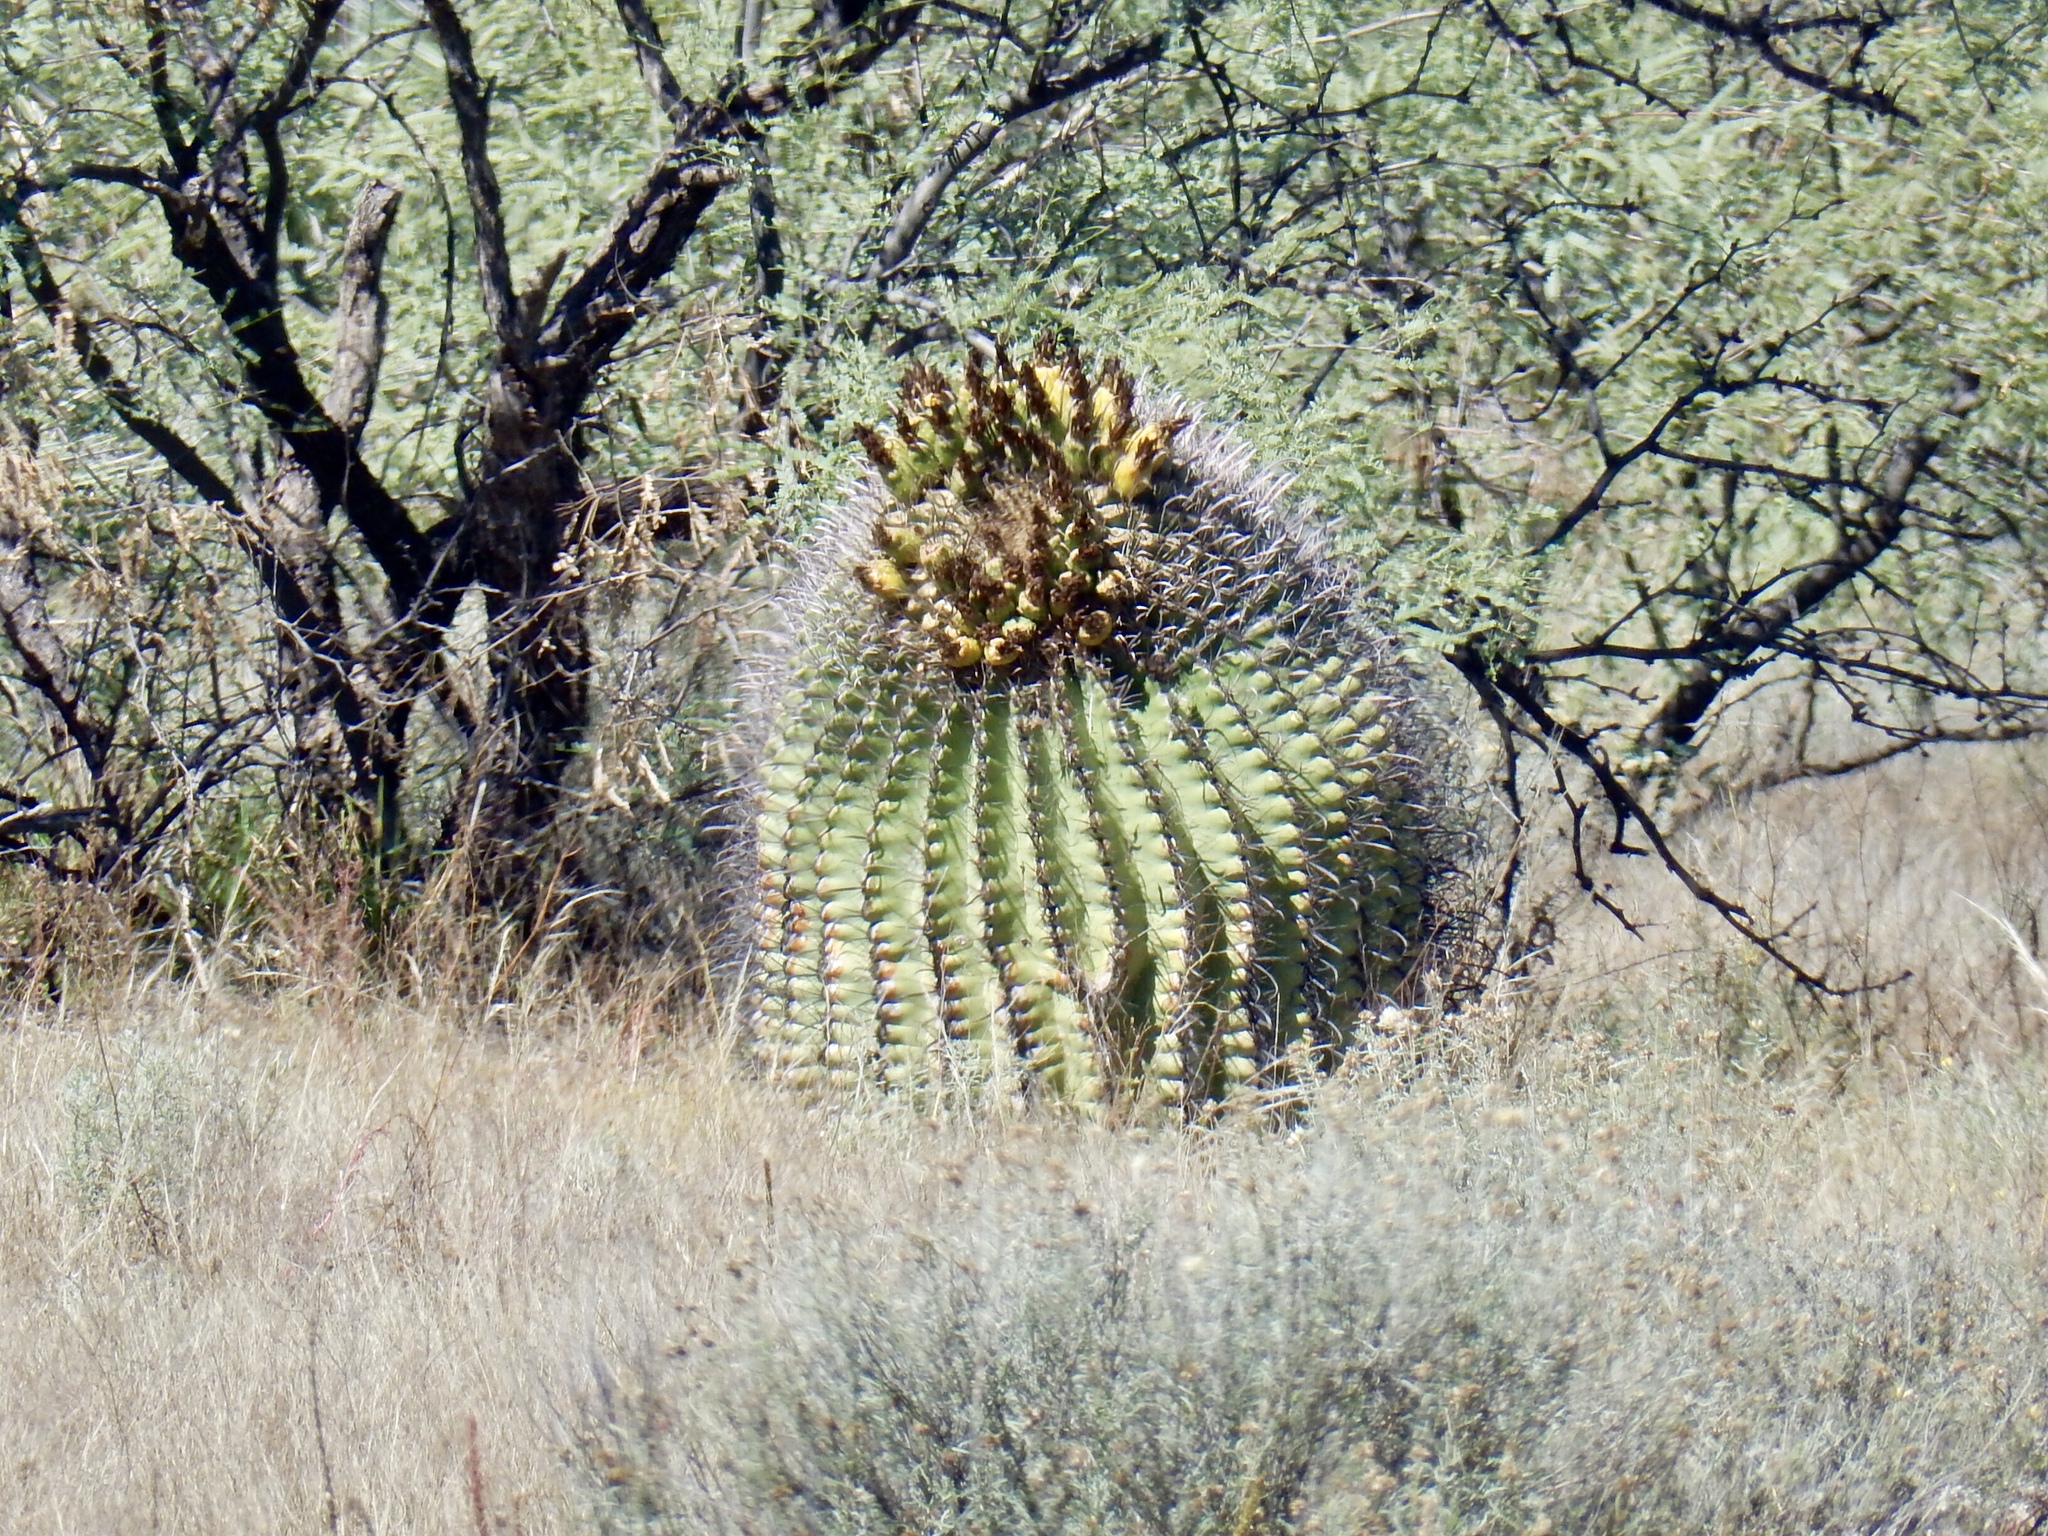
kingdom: Plantae
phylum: Tracheophyta
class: Magnoliopsida
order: Caryophyllales
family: Cactaceae
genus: Ferocactus
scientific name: Ferocactus wislizeni
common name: Candy barrel cactus
